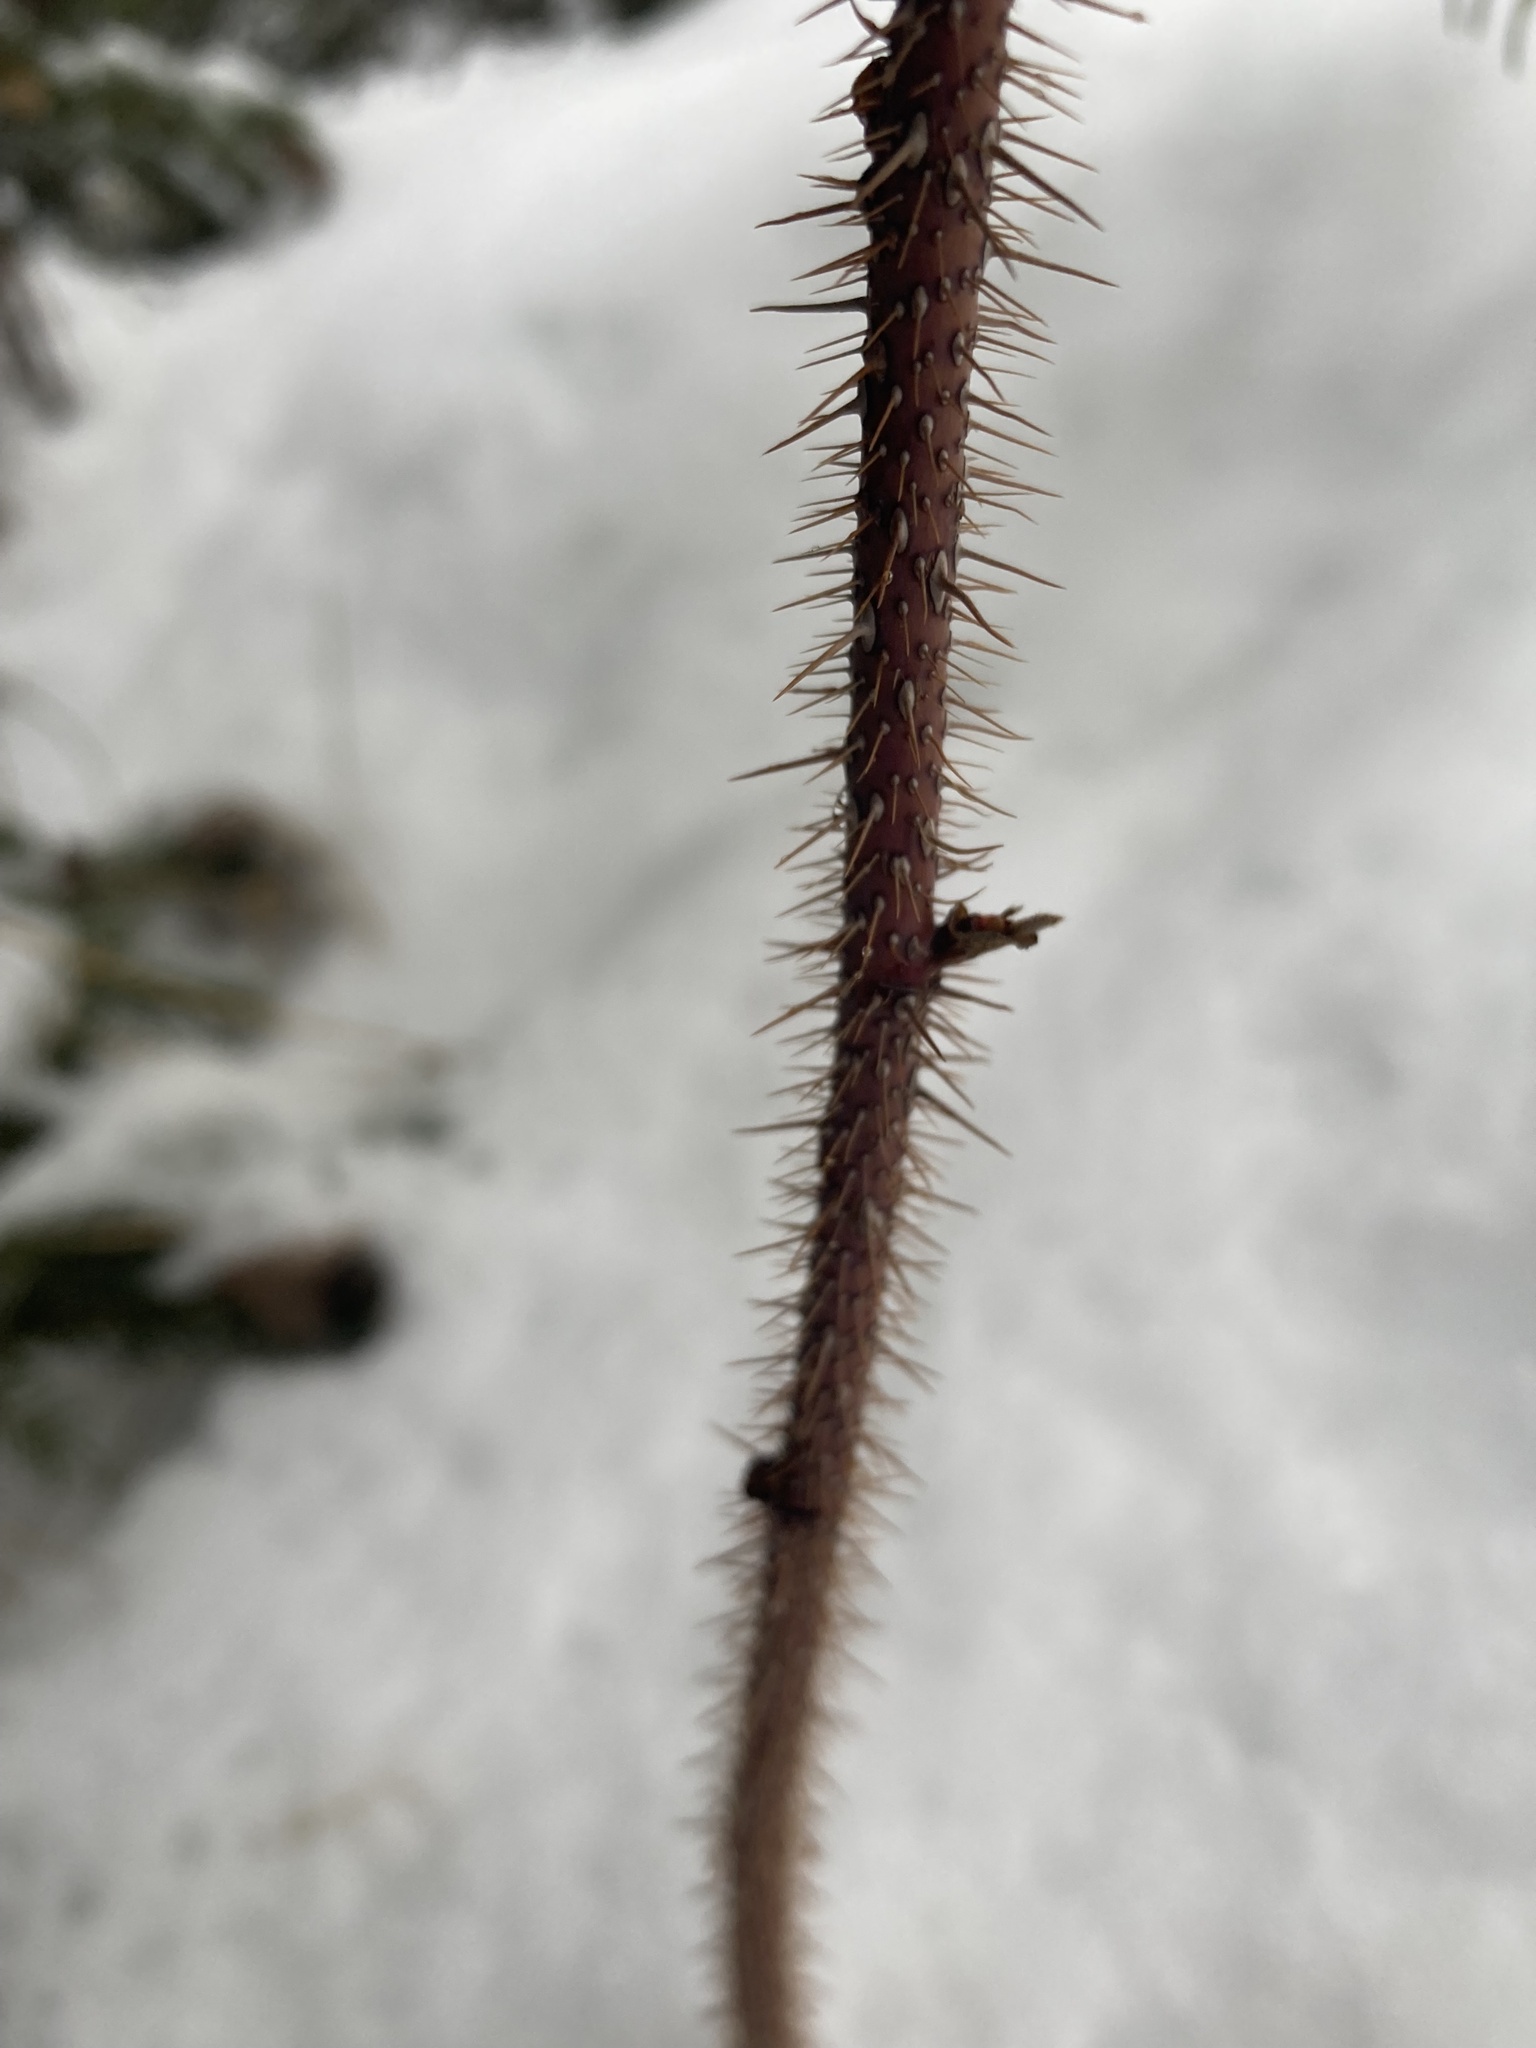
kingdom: Plantae
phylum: Tracheophyta
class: Magnoliopsida
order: Rosales
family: Rosaceae
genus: Rosa
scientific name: Rosa acicularis
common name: Prickly rose
